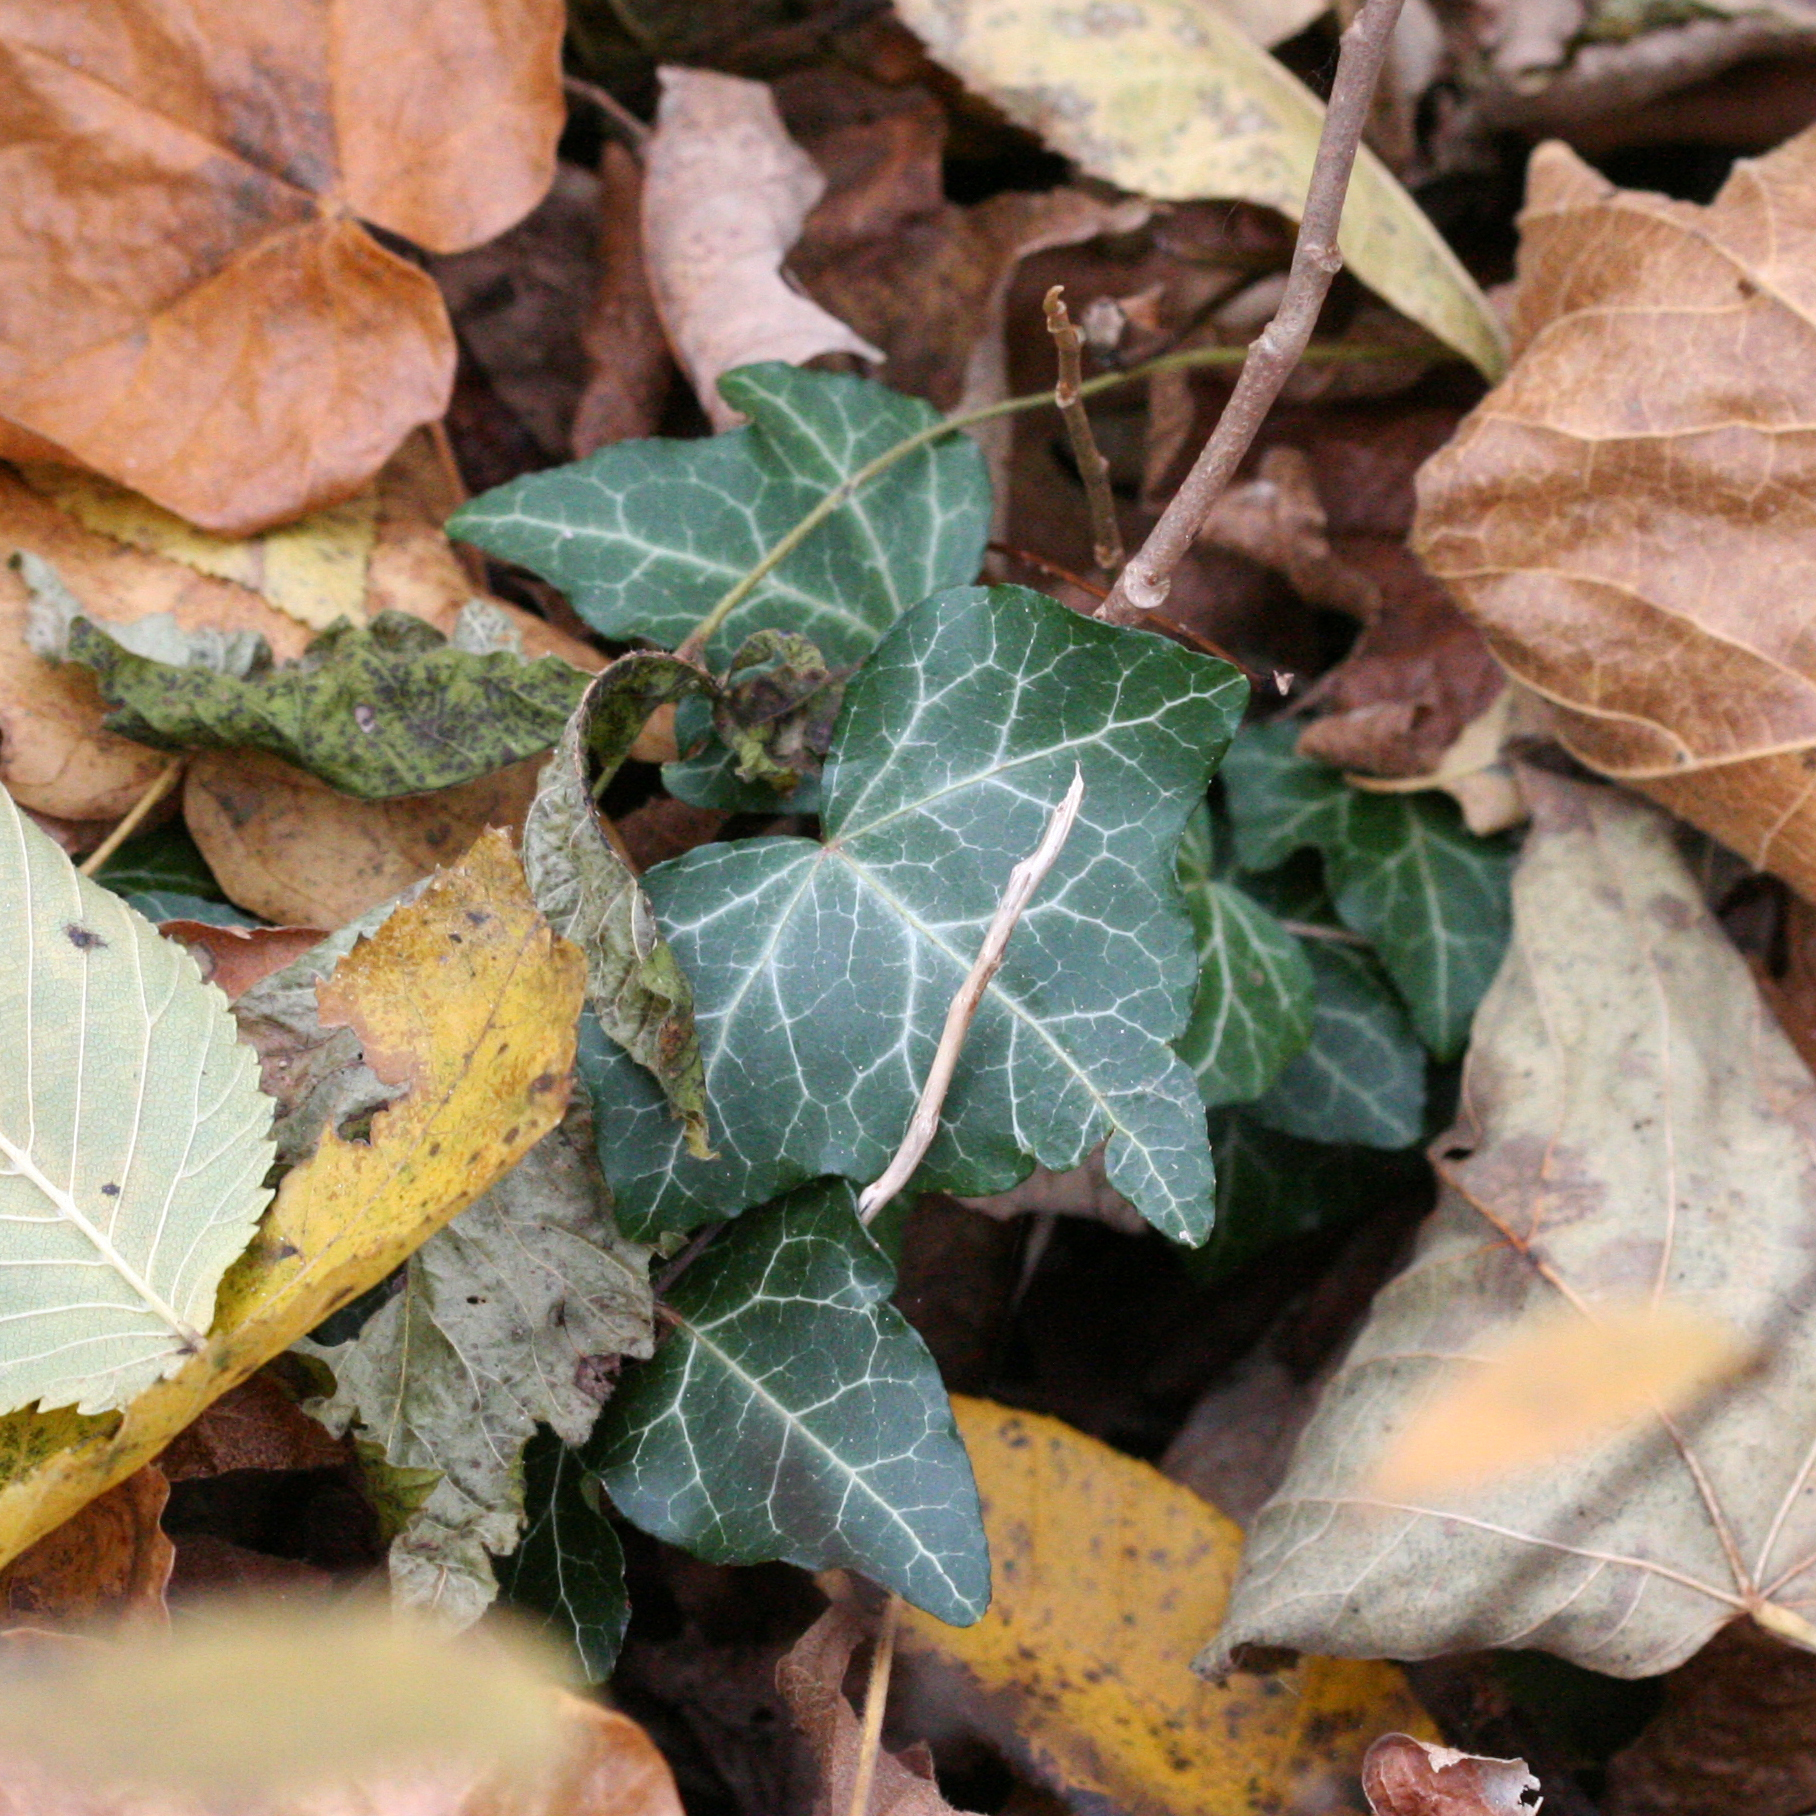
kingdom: Plantae
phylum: Tracheophyta
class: Magnoliopsida
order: Apiales
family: Araliaceae
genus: Hedera
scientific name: Hedera helix
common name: Ivy
